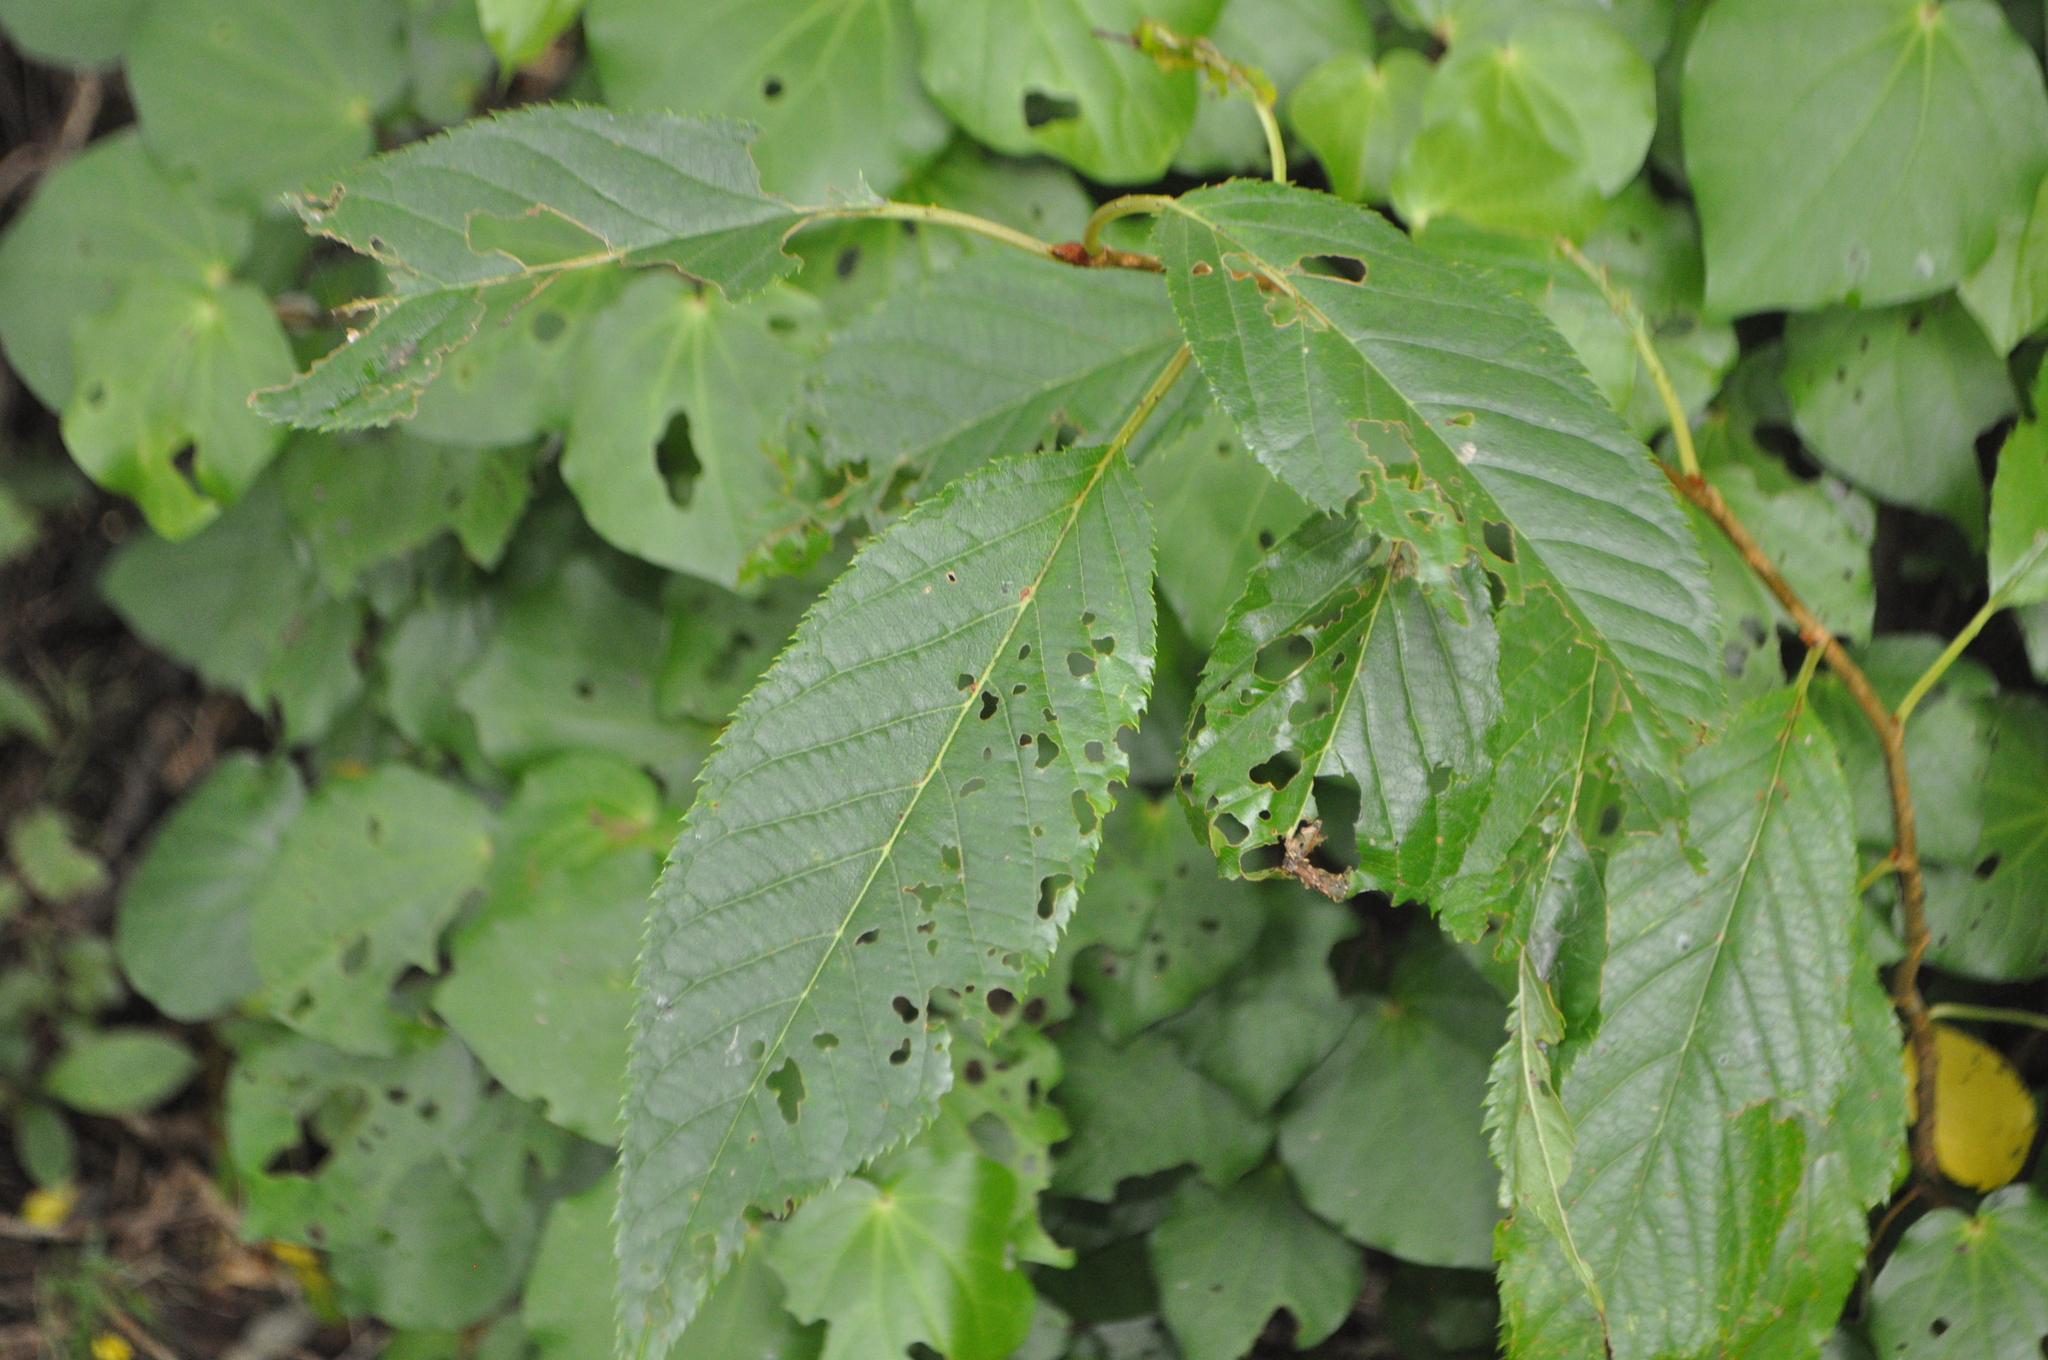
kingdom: Plantae
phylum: Tracheophyta
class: Magnoliopsida
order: Rosales
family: Rosaceae
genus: Prunus
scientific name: Prunus serrulata
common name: Japanese cherry
